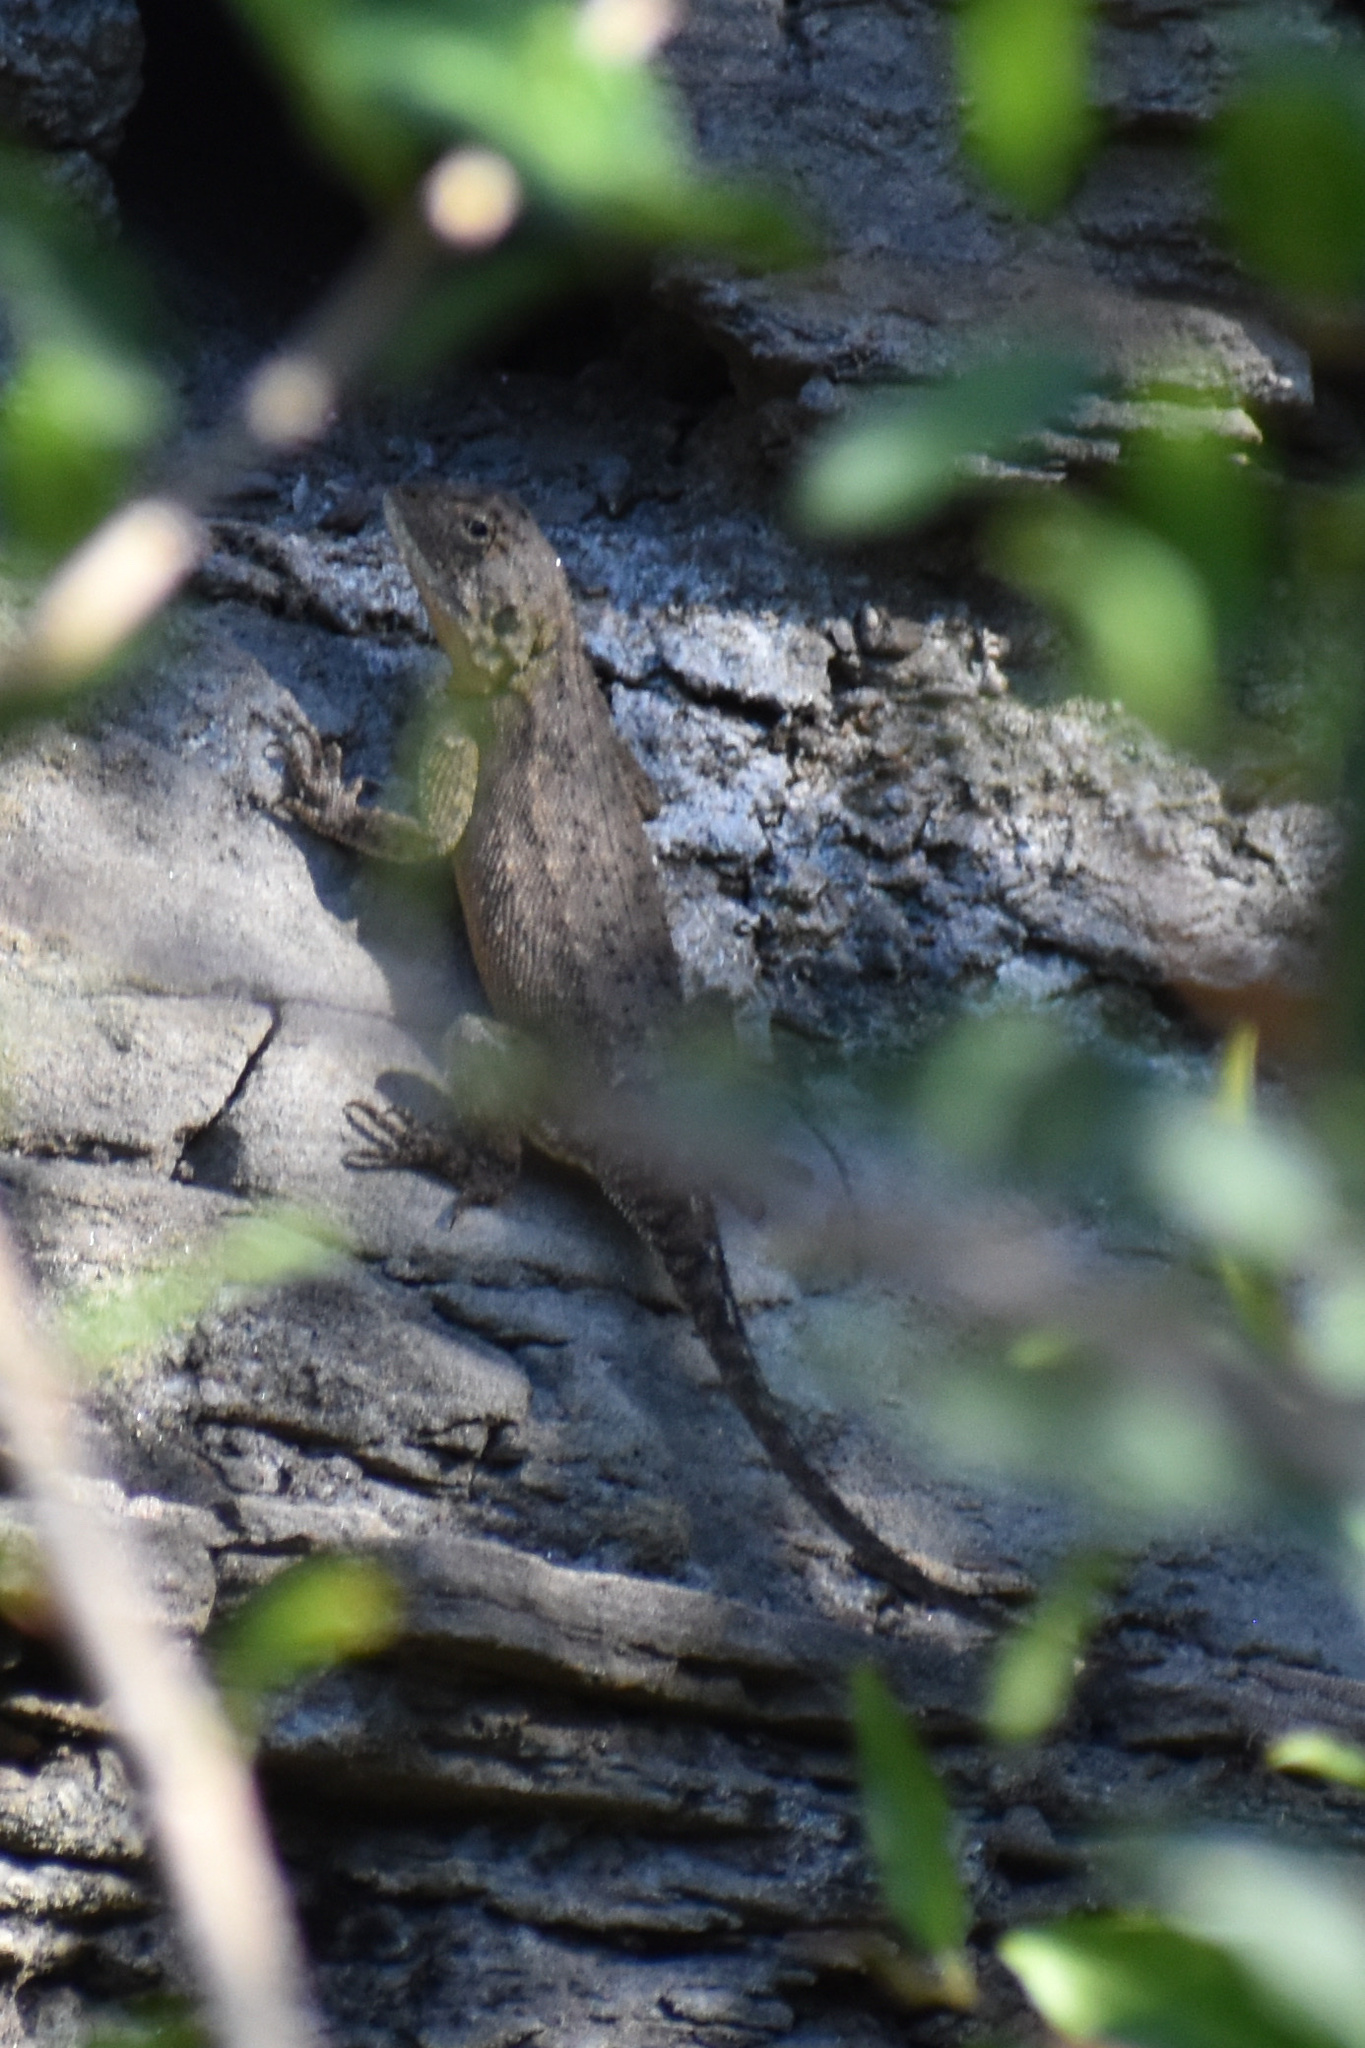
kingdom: Animalia
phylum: Chordata
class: Squamata
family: Agamidae
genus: Agama
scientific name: Agama aculeata
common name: Common ground agama
